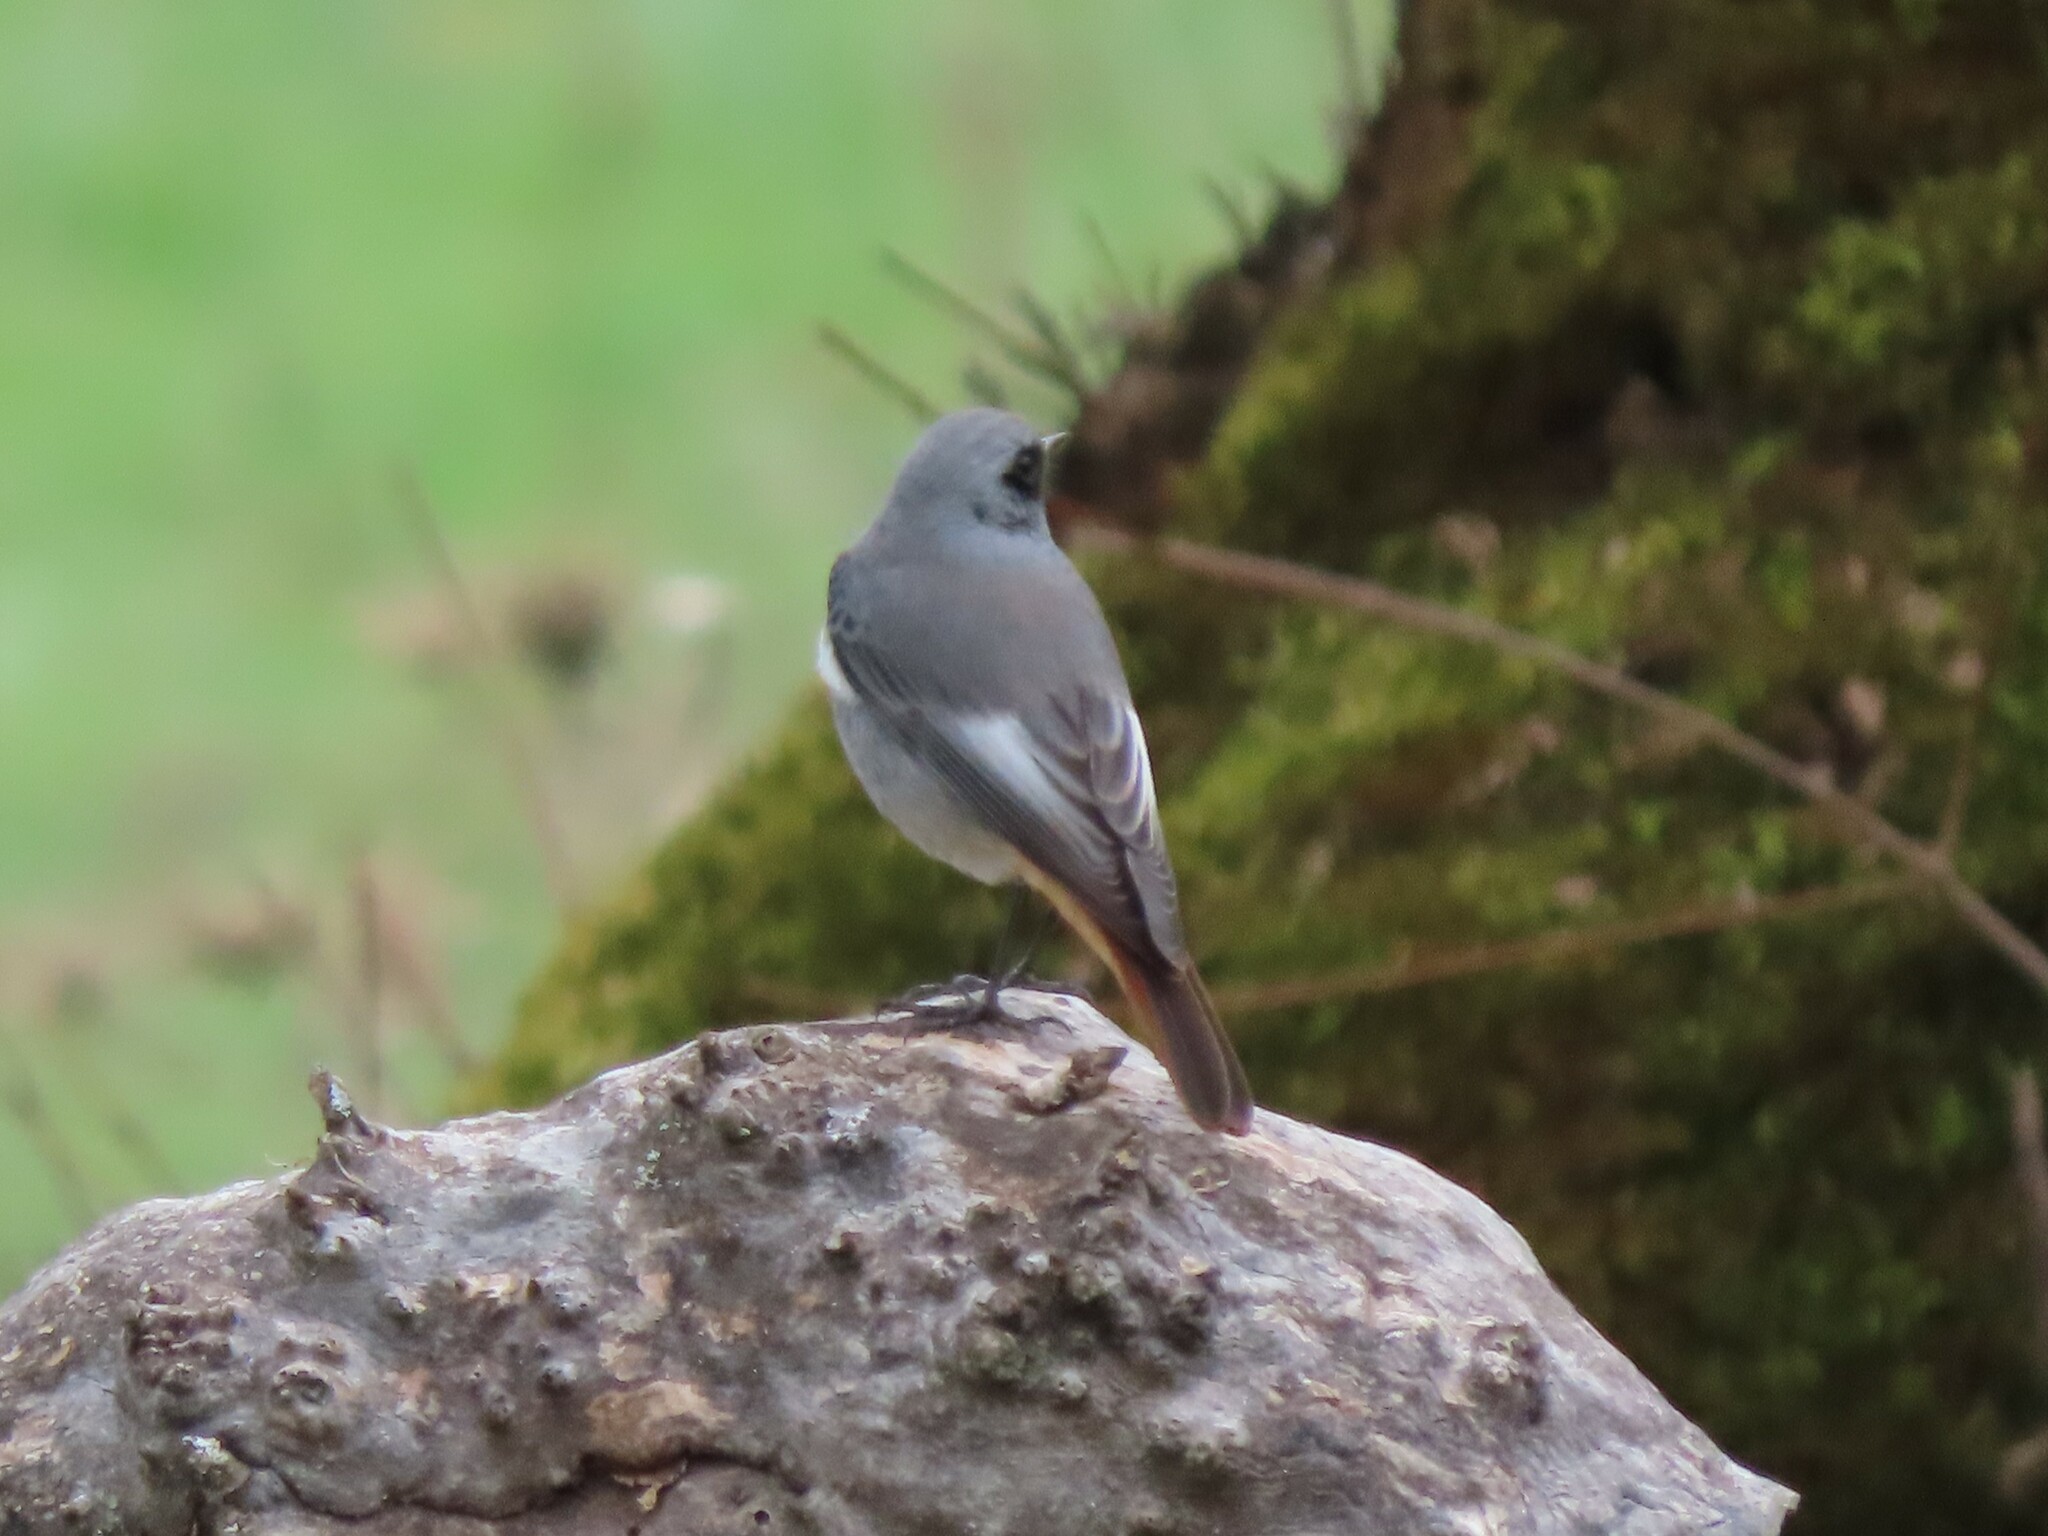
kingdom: Animalia
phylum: Chordata
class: Aves
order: Passeriformes
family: Muscicapidae
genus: Phoenicurus
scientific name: Phoenicurus ochruros
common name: Black redstart
